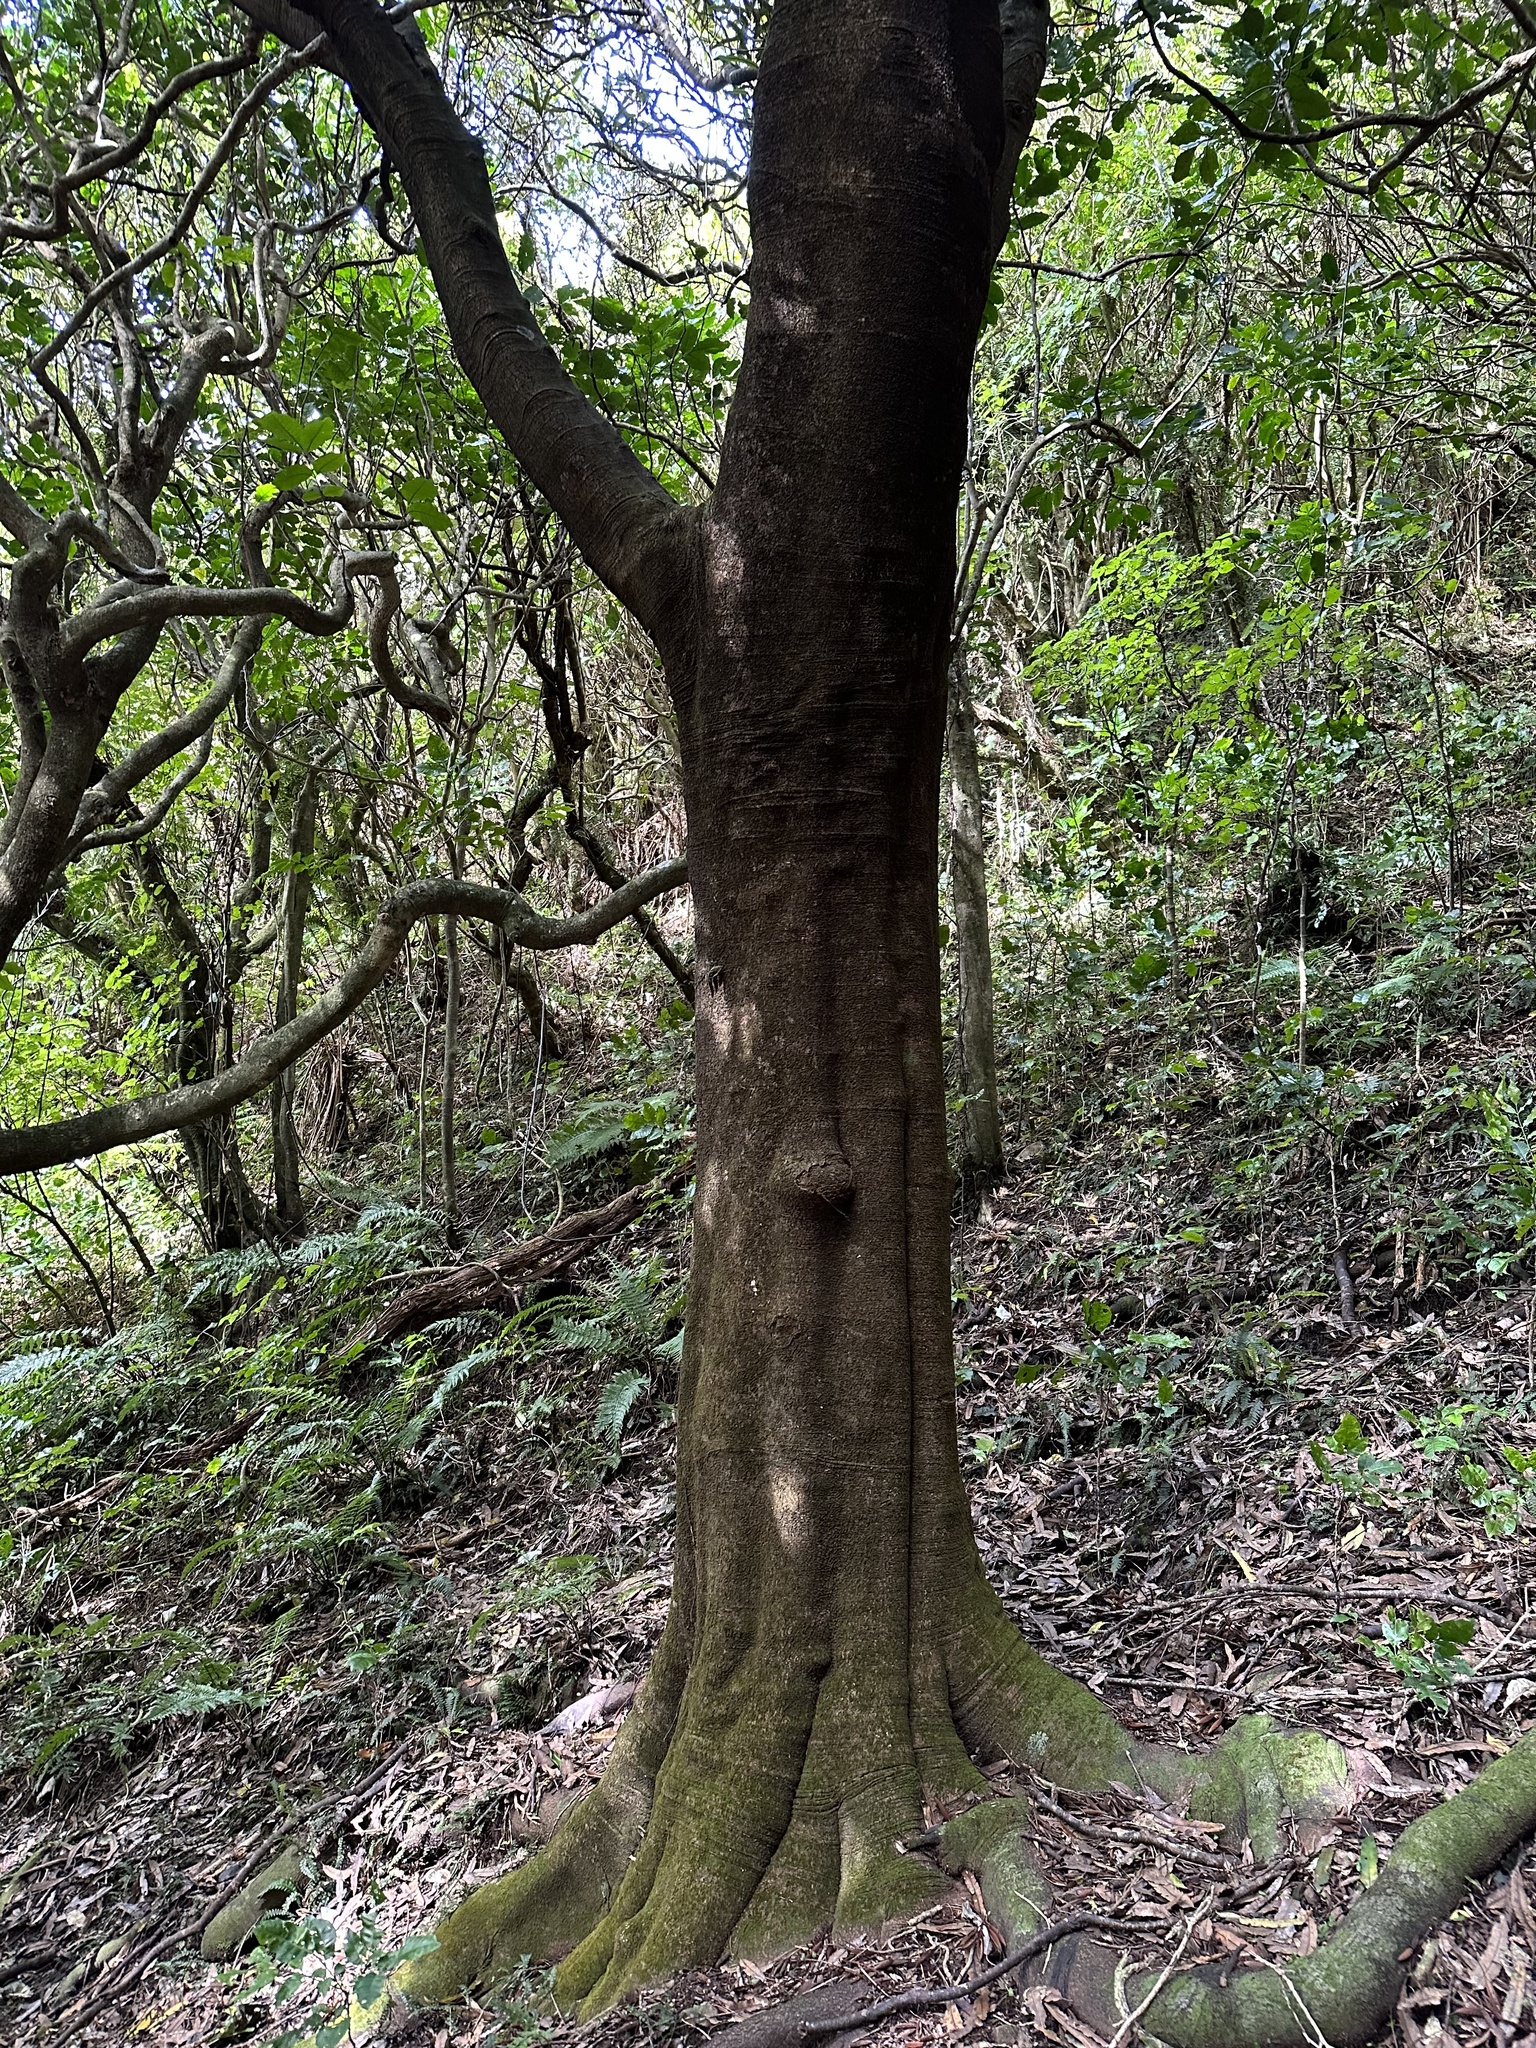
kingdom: Plantae
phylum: Tracheophyta
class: Magnoliopsida
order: Proteales
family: Proteaceae
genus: Knightia
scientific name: Knightia excelsa
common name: New zealand-honeysuckle
